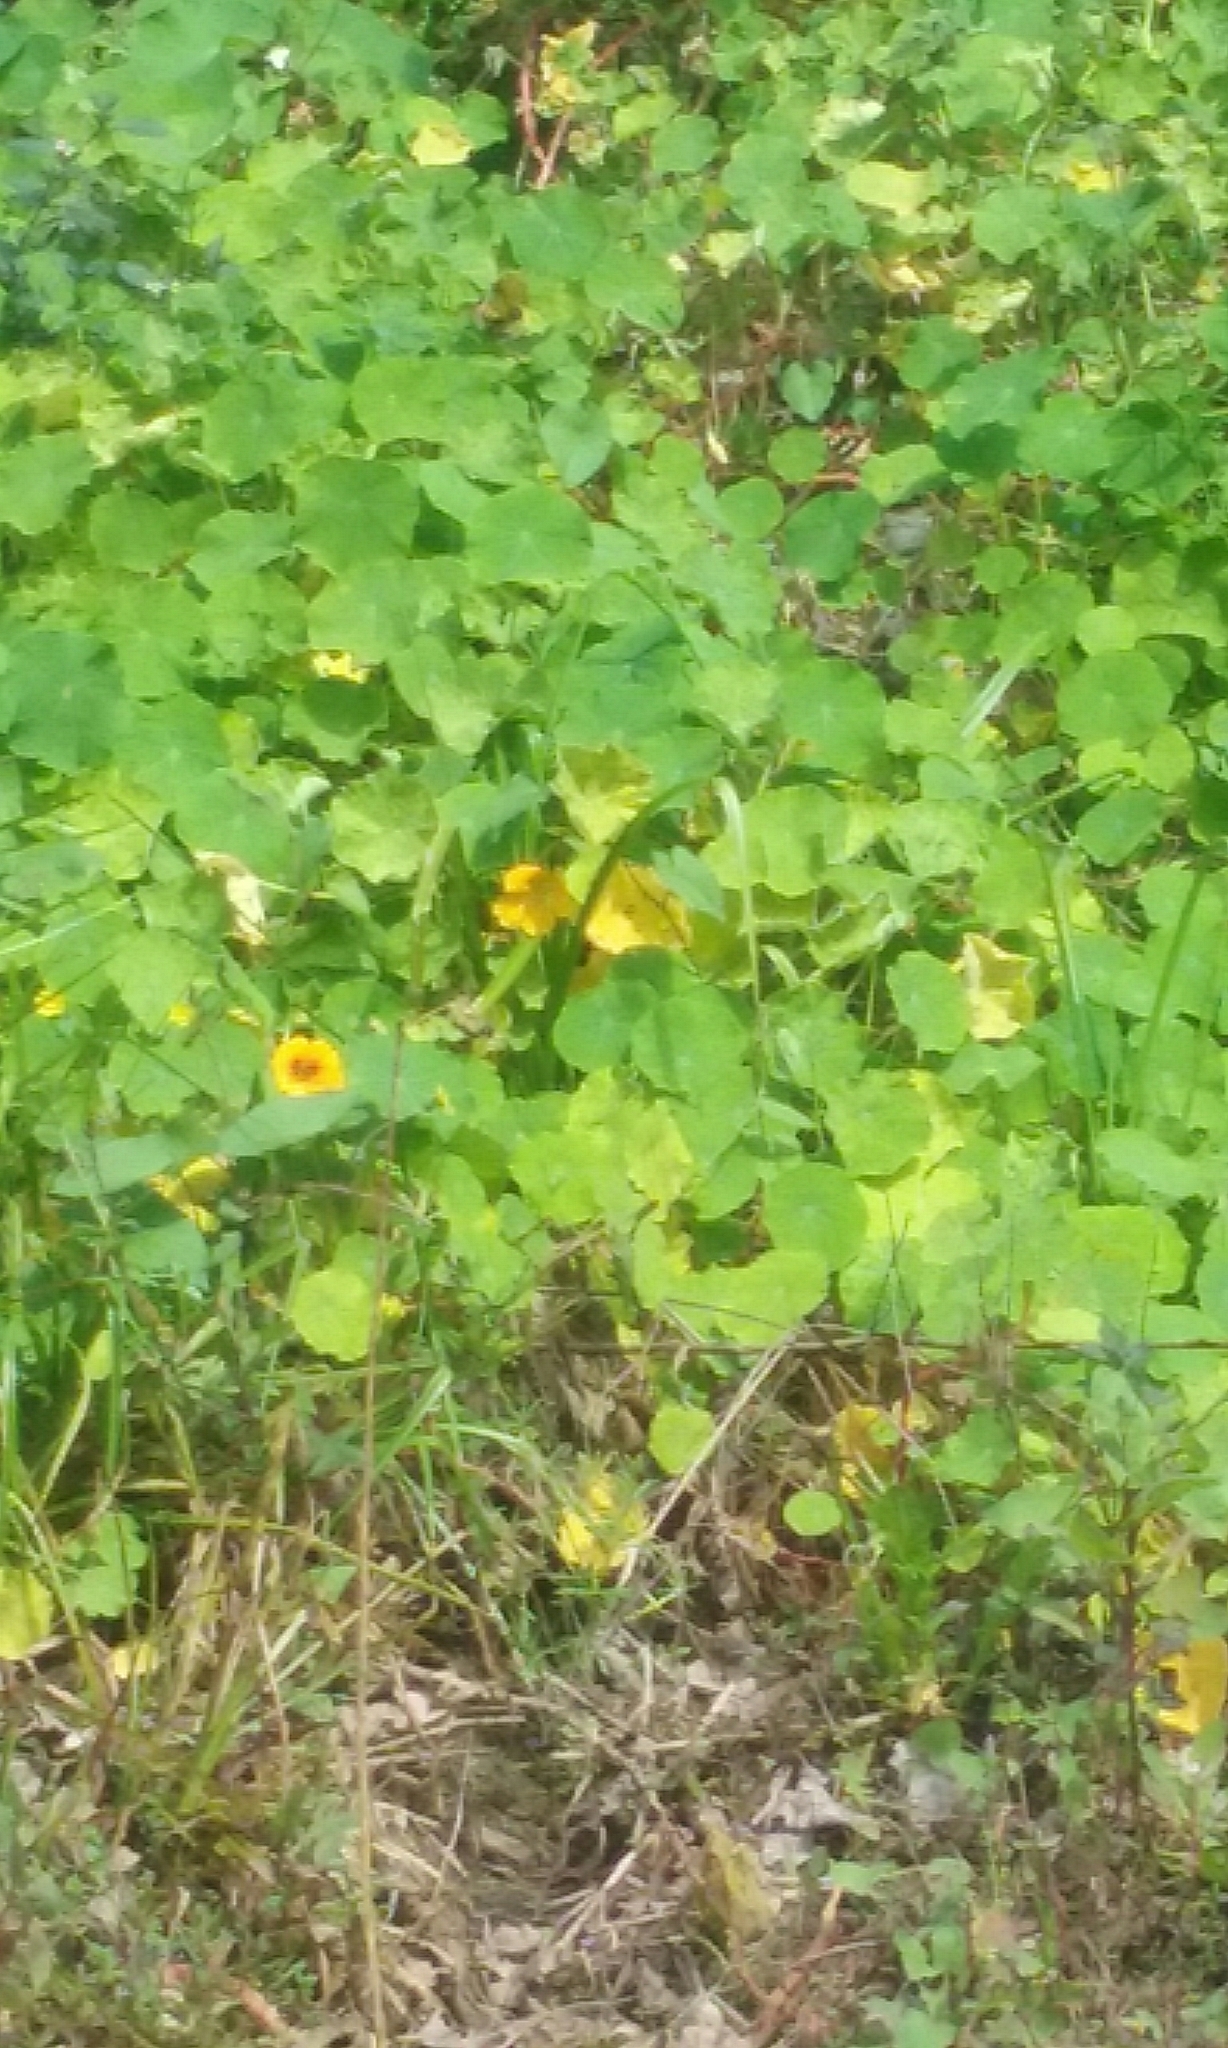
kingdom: Plantae
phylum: Tracheophyta
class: Magnoliopsida
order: Brassicales
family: Tropaeolaceae
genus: Tropaeolum
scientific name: Tropaeolum majus
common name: Nasturtium
